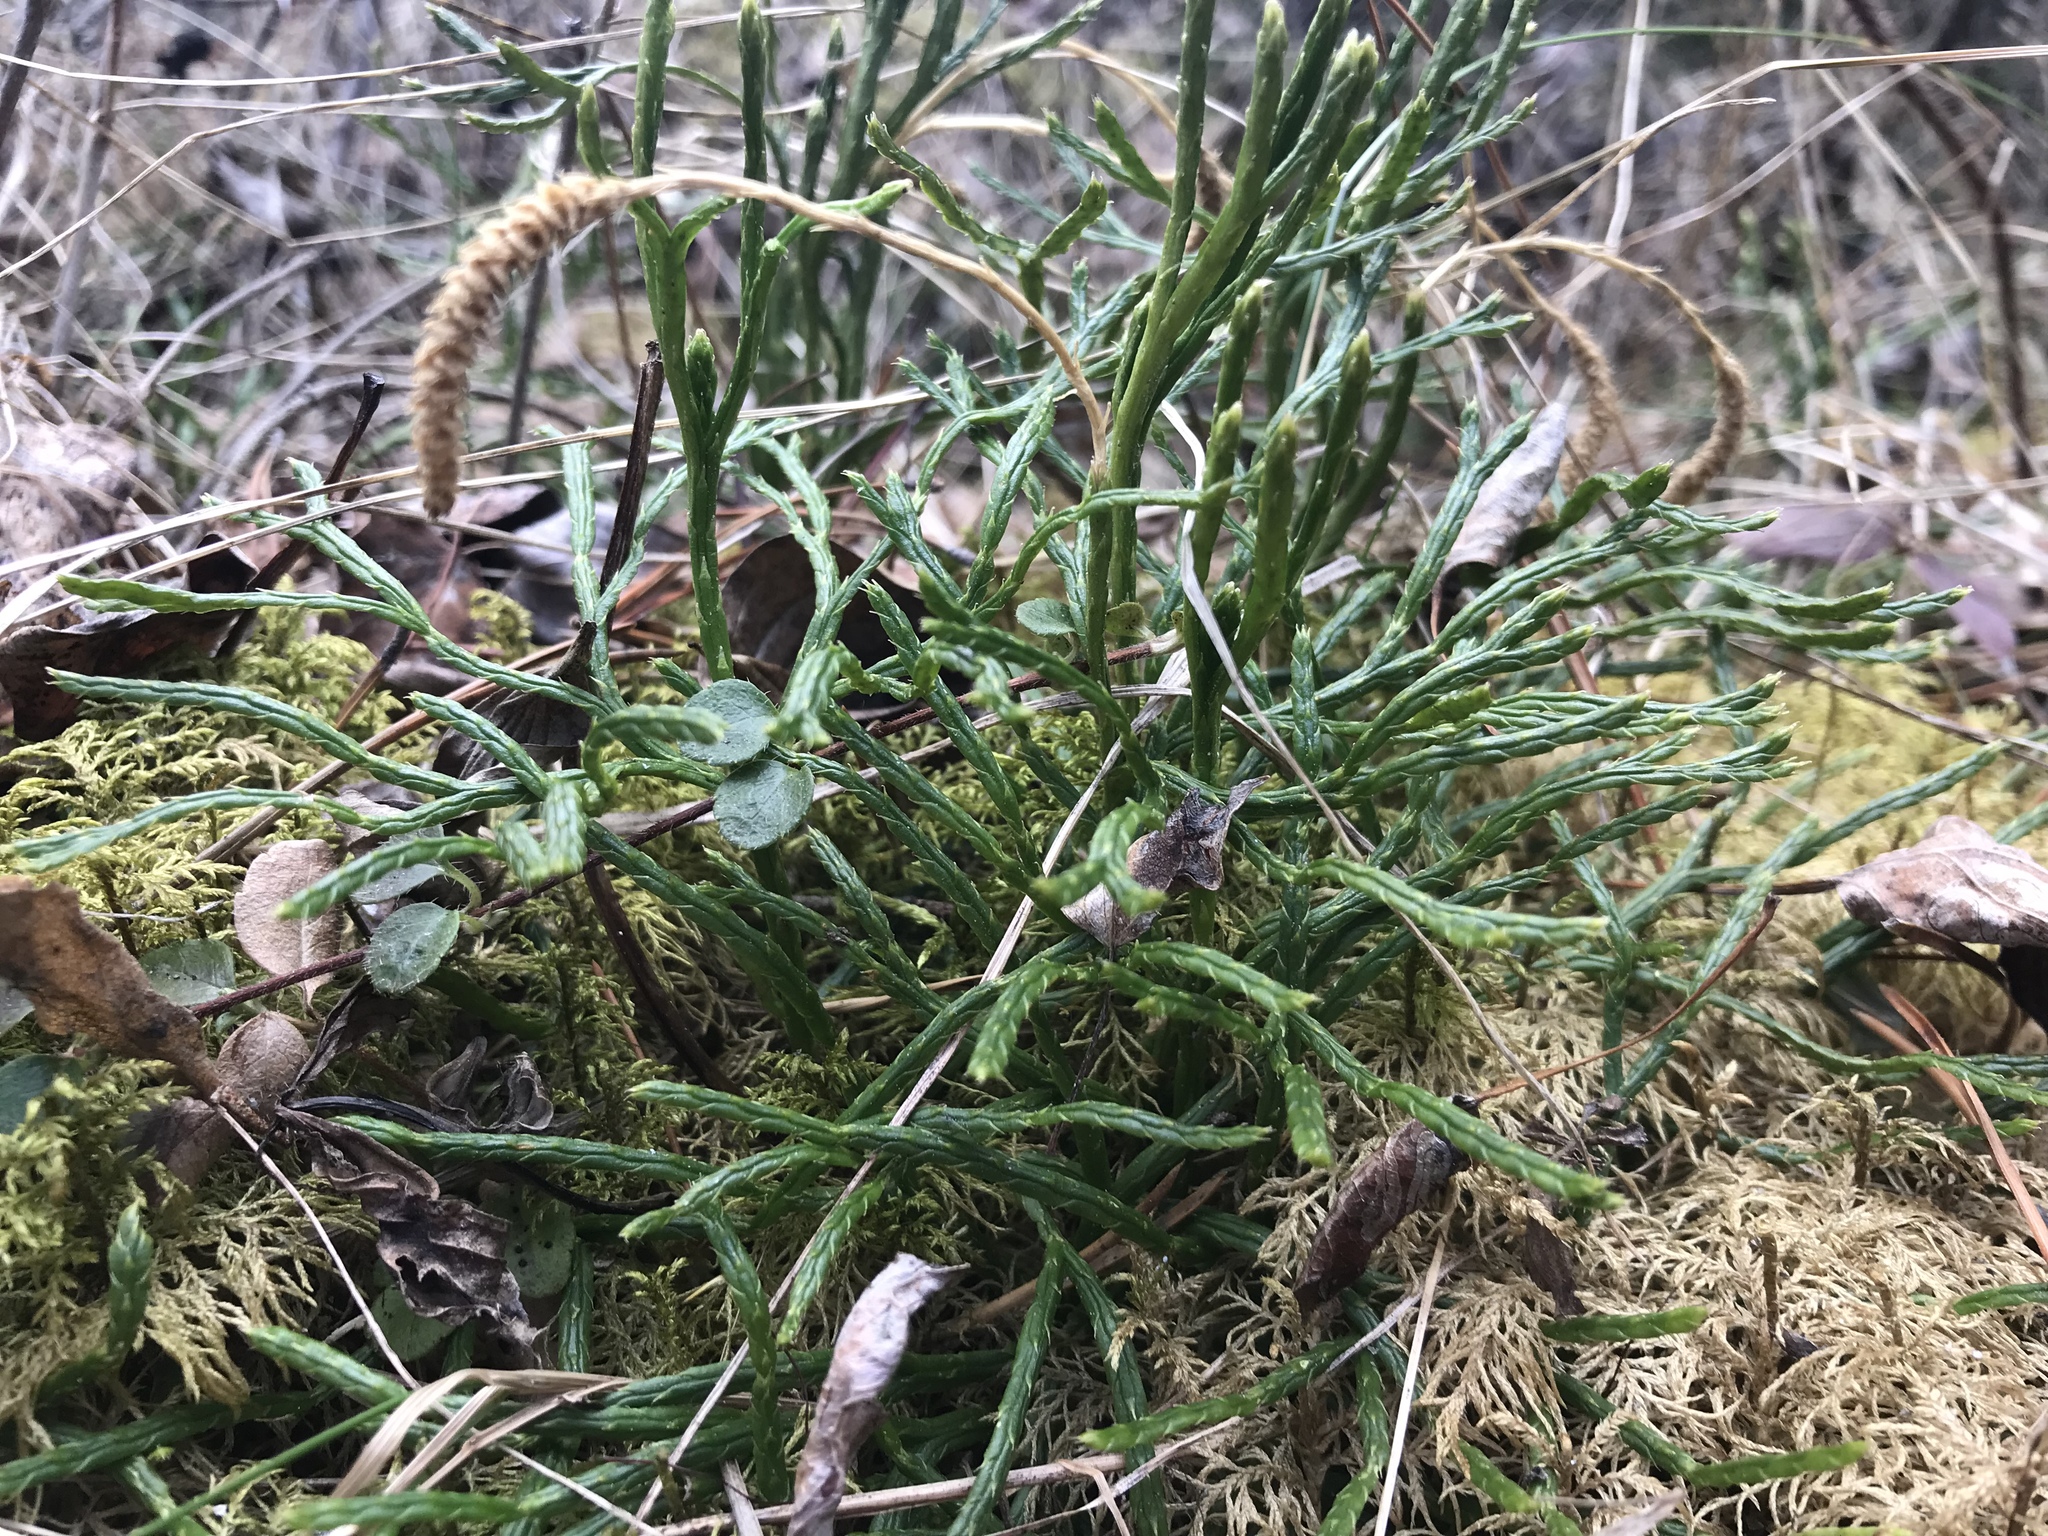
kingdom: Plantae
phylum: Tracheophyta
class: Lycopodiopsida
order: Lycopodiales
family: Lycopodiaceae
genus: Diphasiastrum
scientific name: Diphasiastrum complanatum
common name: Northern running-pine
